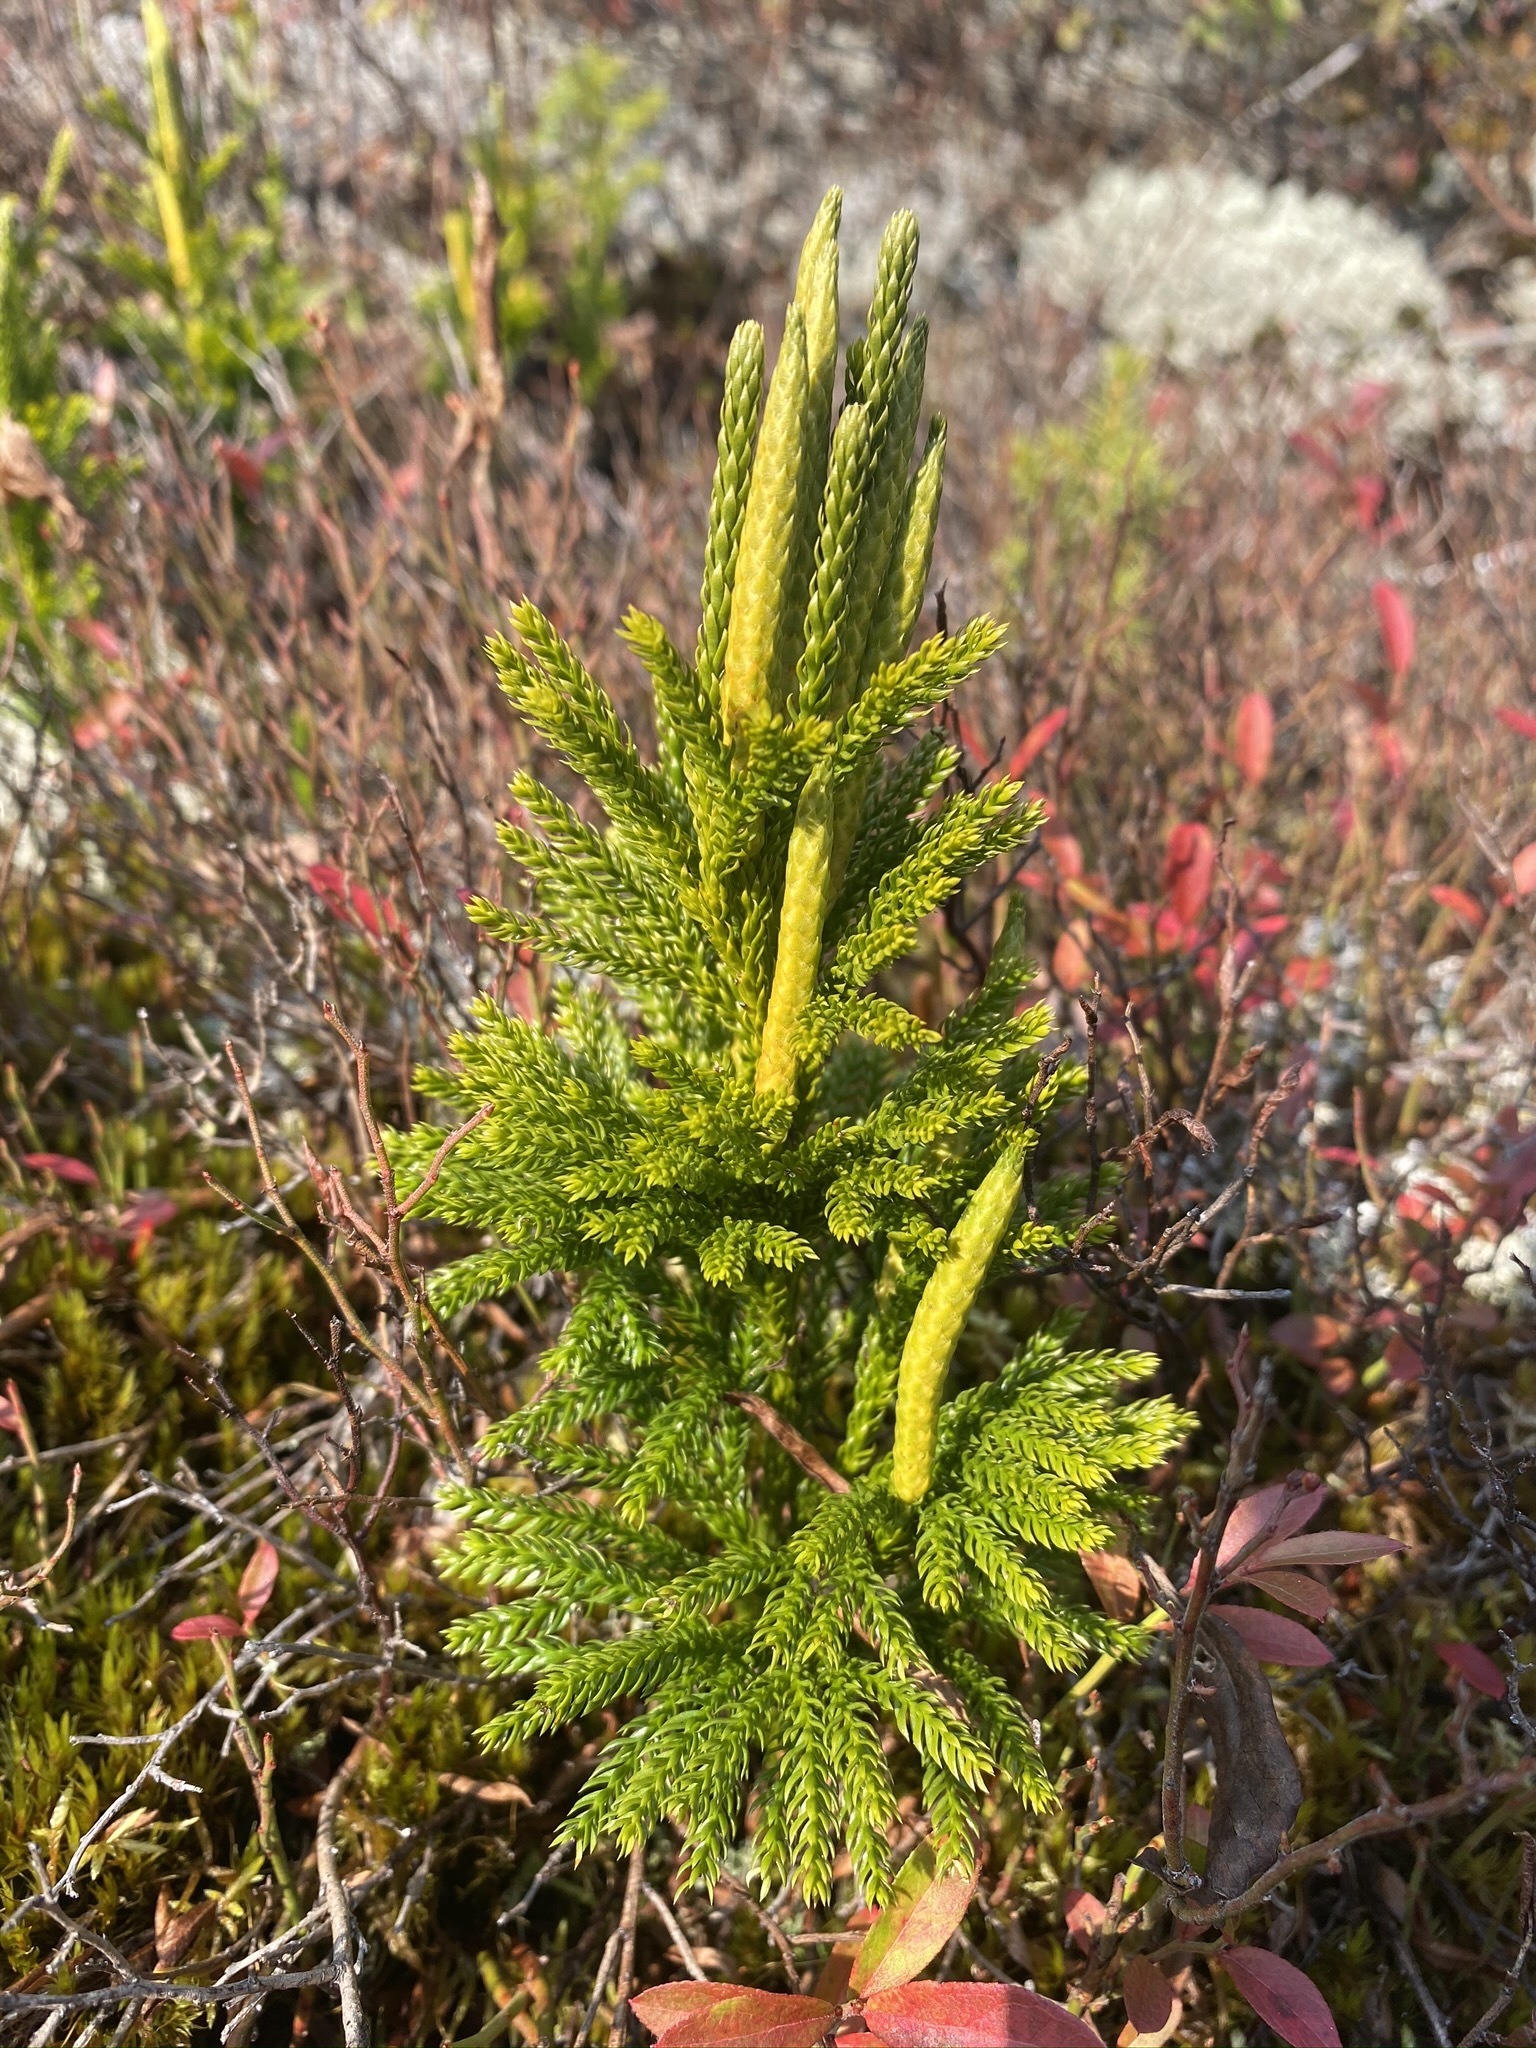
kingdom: Plantae
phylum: Tracheophyta
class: Lycopodiopsida
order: Lycopodiales
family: Lycopodiaceae
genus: Dendrolycopodium
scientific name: Dendrolycopodium hickeyi
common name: Hickey's clubmoss
